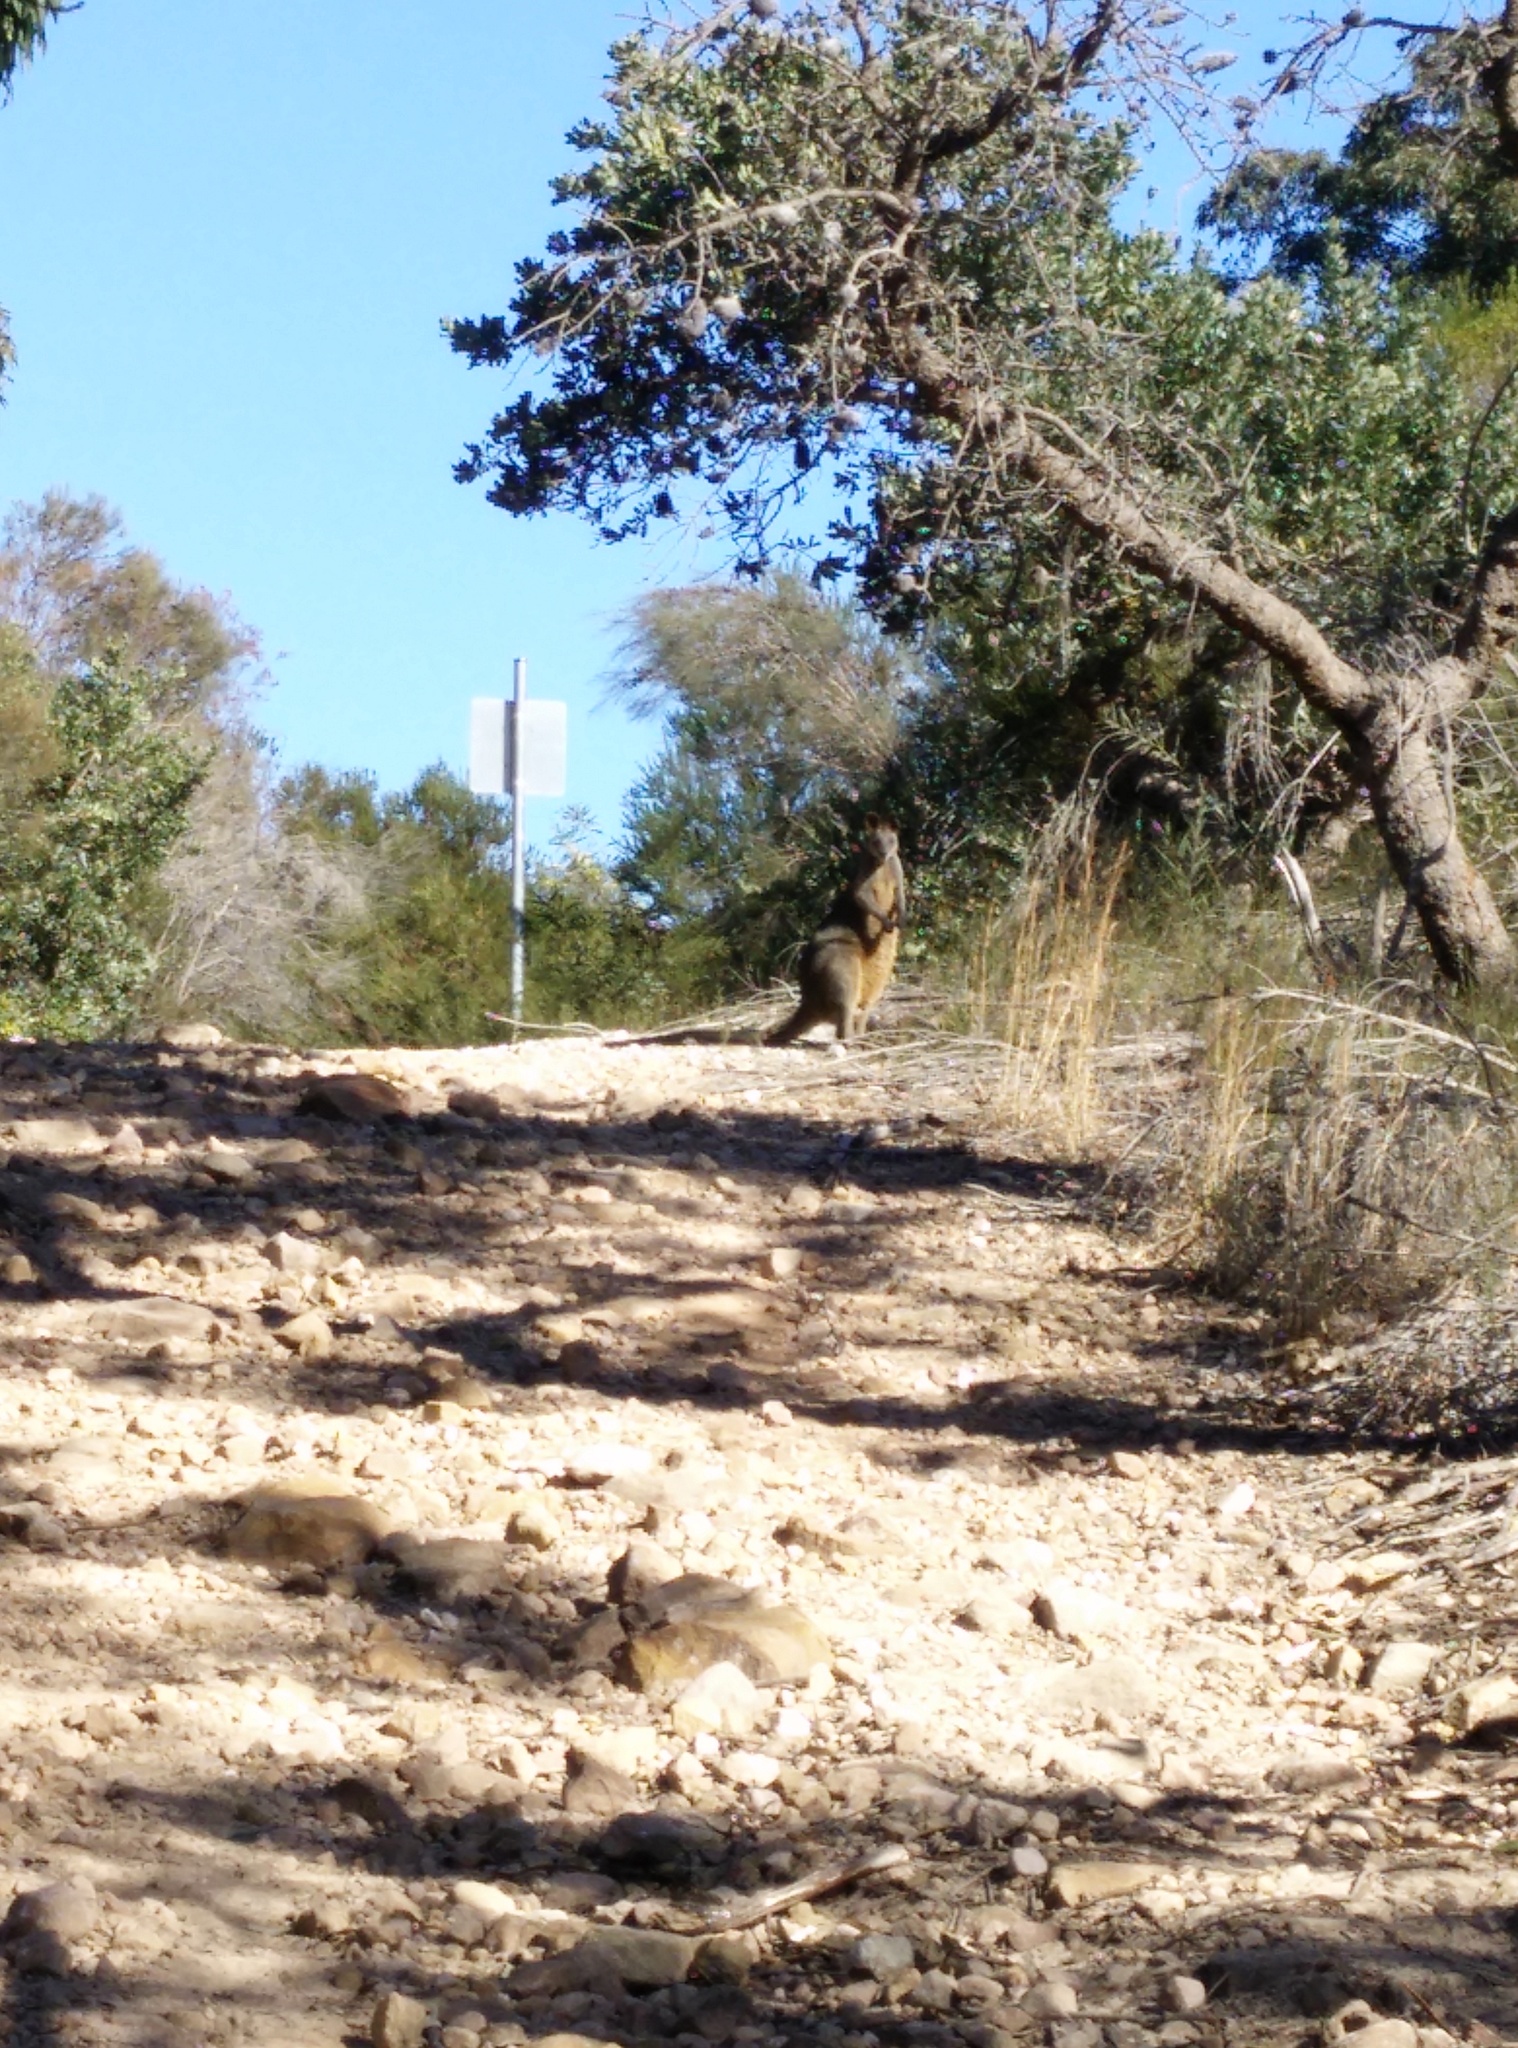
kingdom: Animalia
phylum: Chordata
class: Mammalia
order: Diprotodontia
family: Macropodidae
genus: Wallabia
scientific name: Wallabia bicolor
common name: Swamp wallaby
